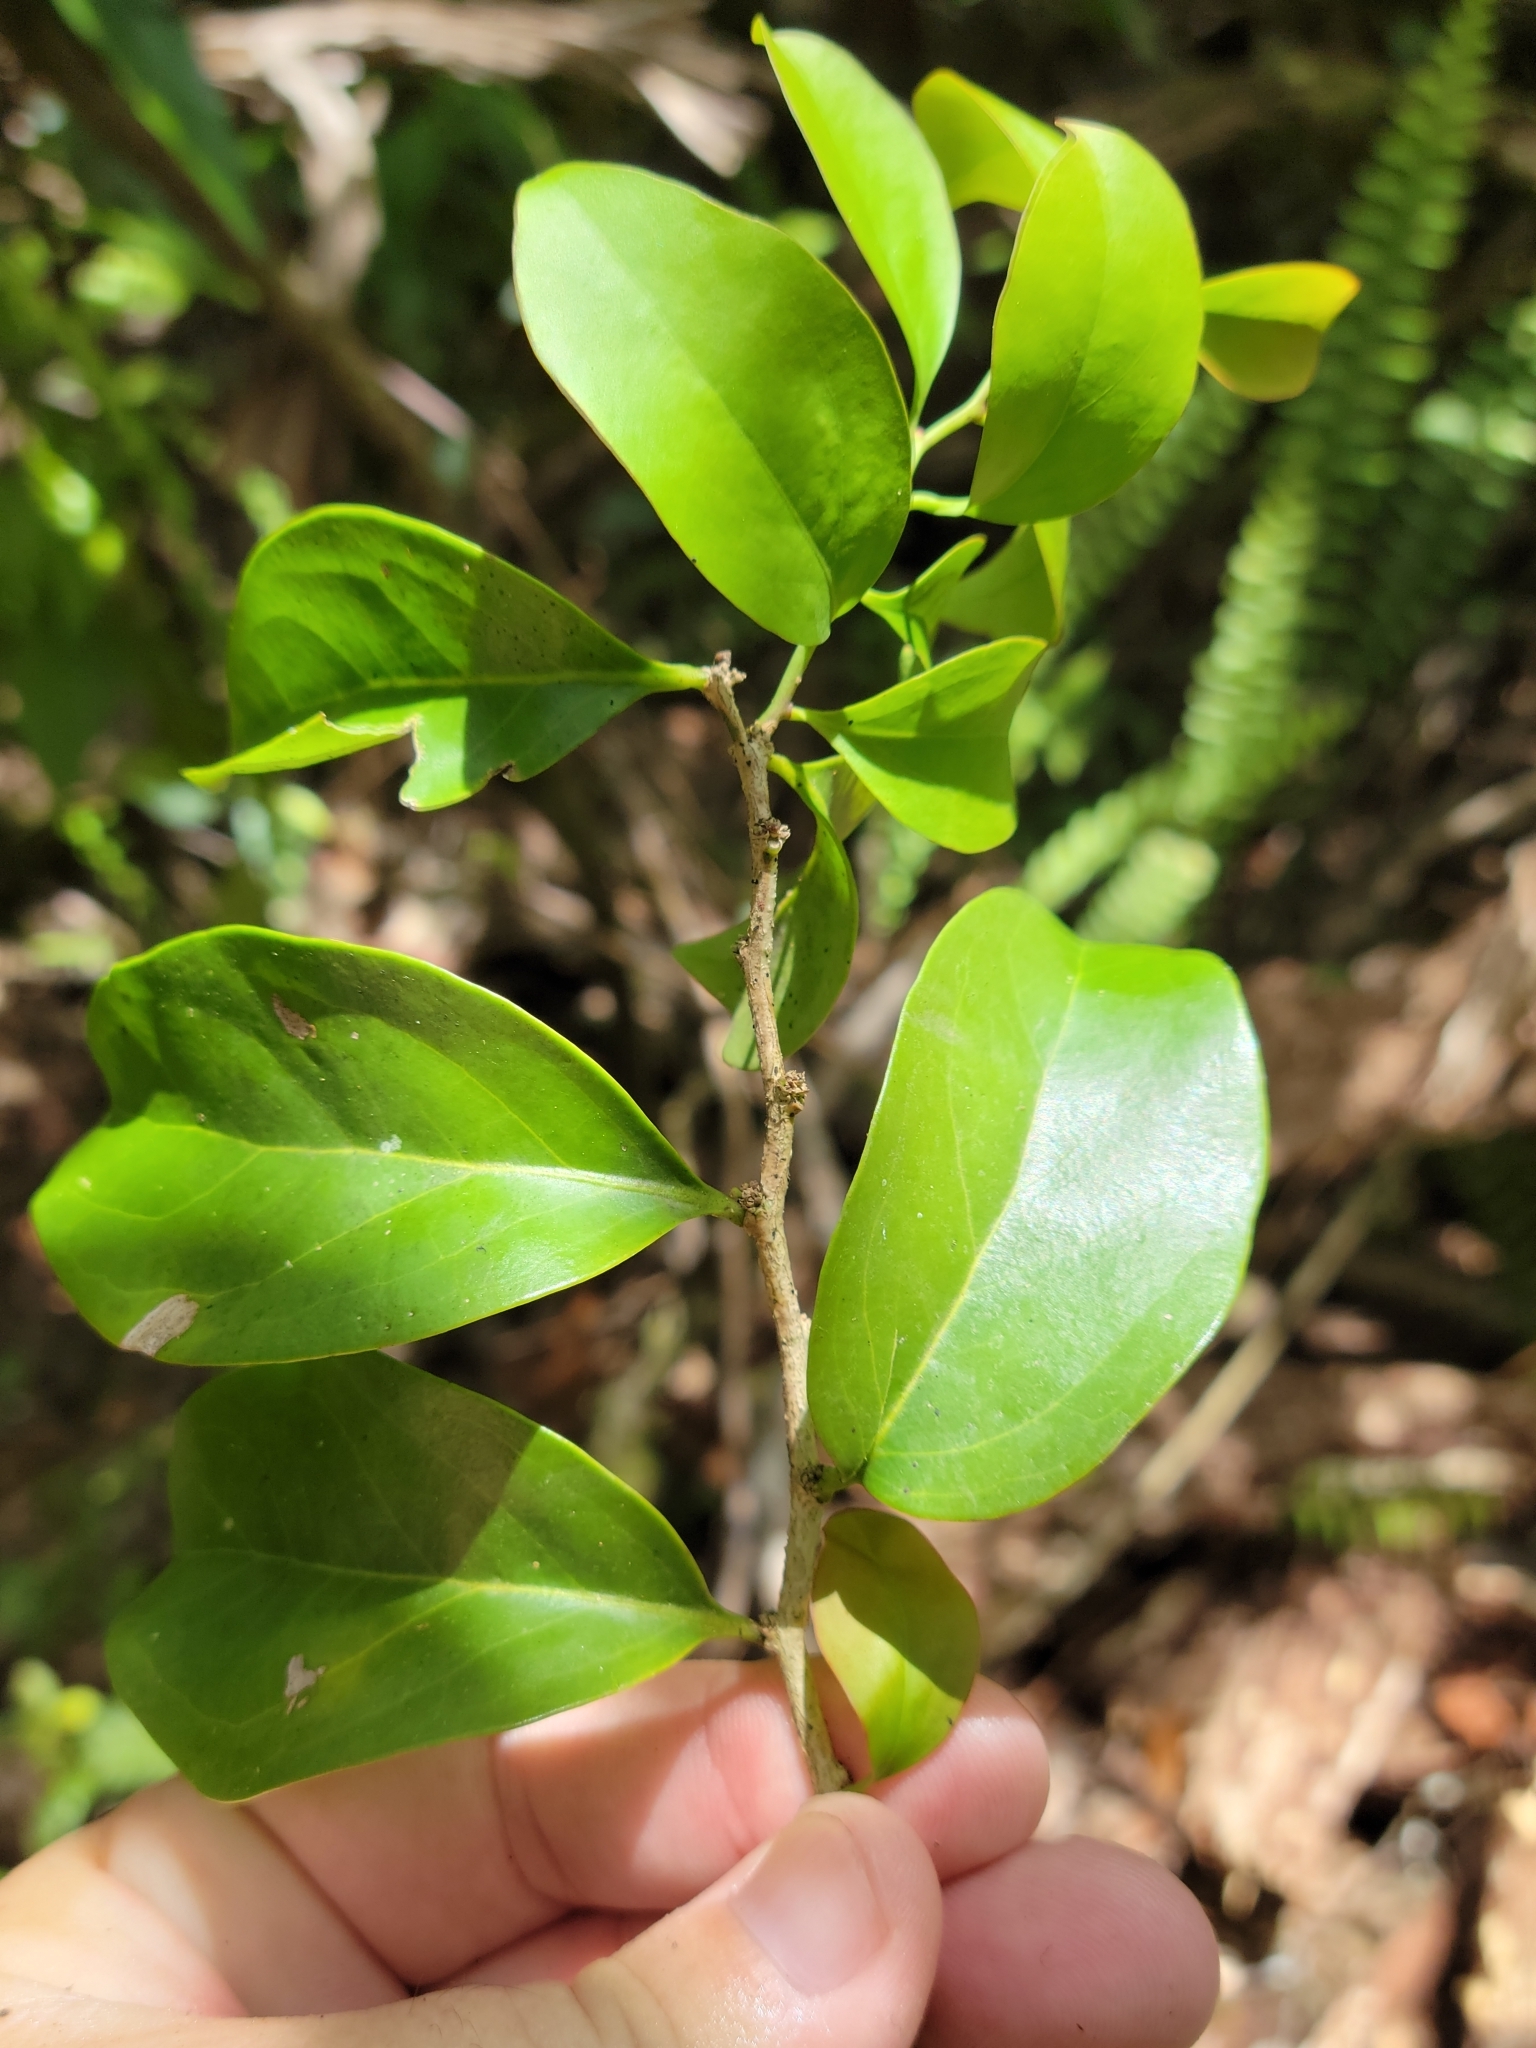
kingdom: Plantae
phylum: Tracheophyta
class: Magnoliopsida
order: Santalales
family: Schoepfiaceae
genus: Schoepfia
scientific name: Schoepfia schreberi
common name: Gulf graytwig
